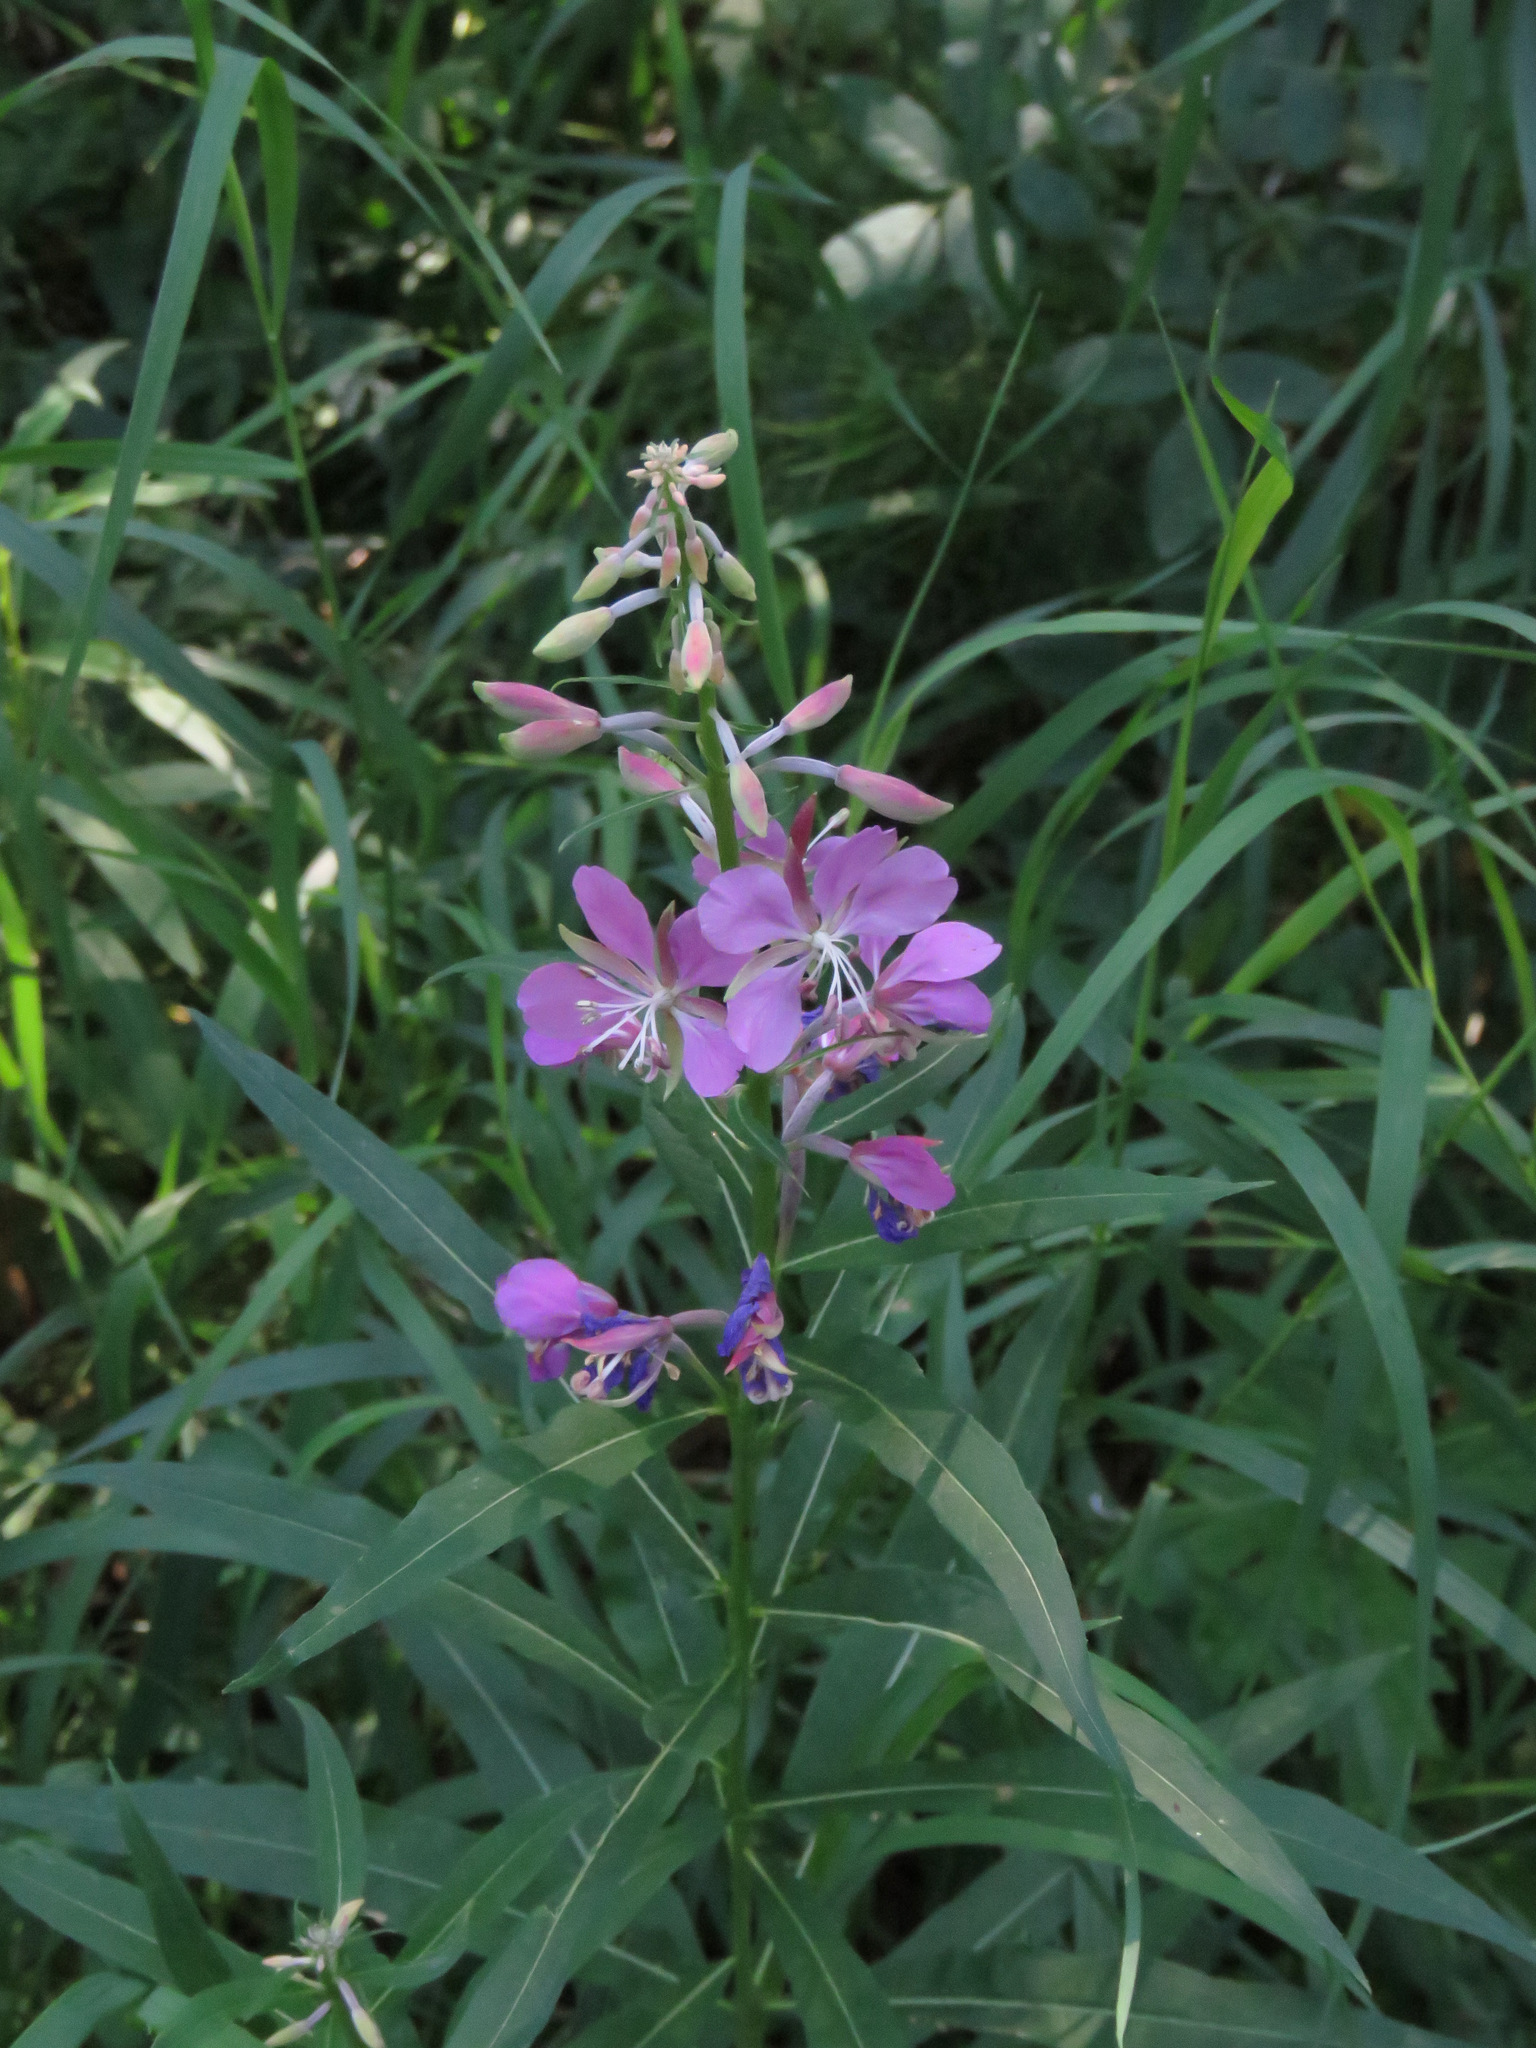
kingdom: Plantae
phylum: Tracheophyta
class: Magnoliopsida
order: Myrtales
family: Onagraceae
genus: Chamaenerion
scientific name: Chamaenerion angustifolium
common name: Fireweed
